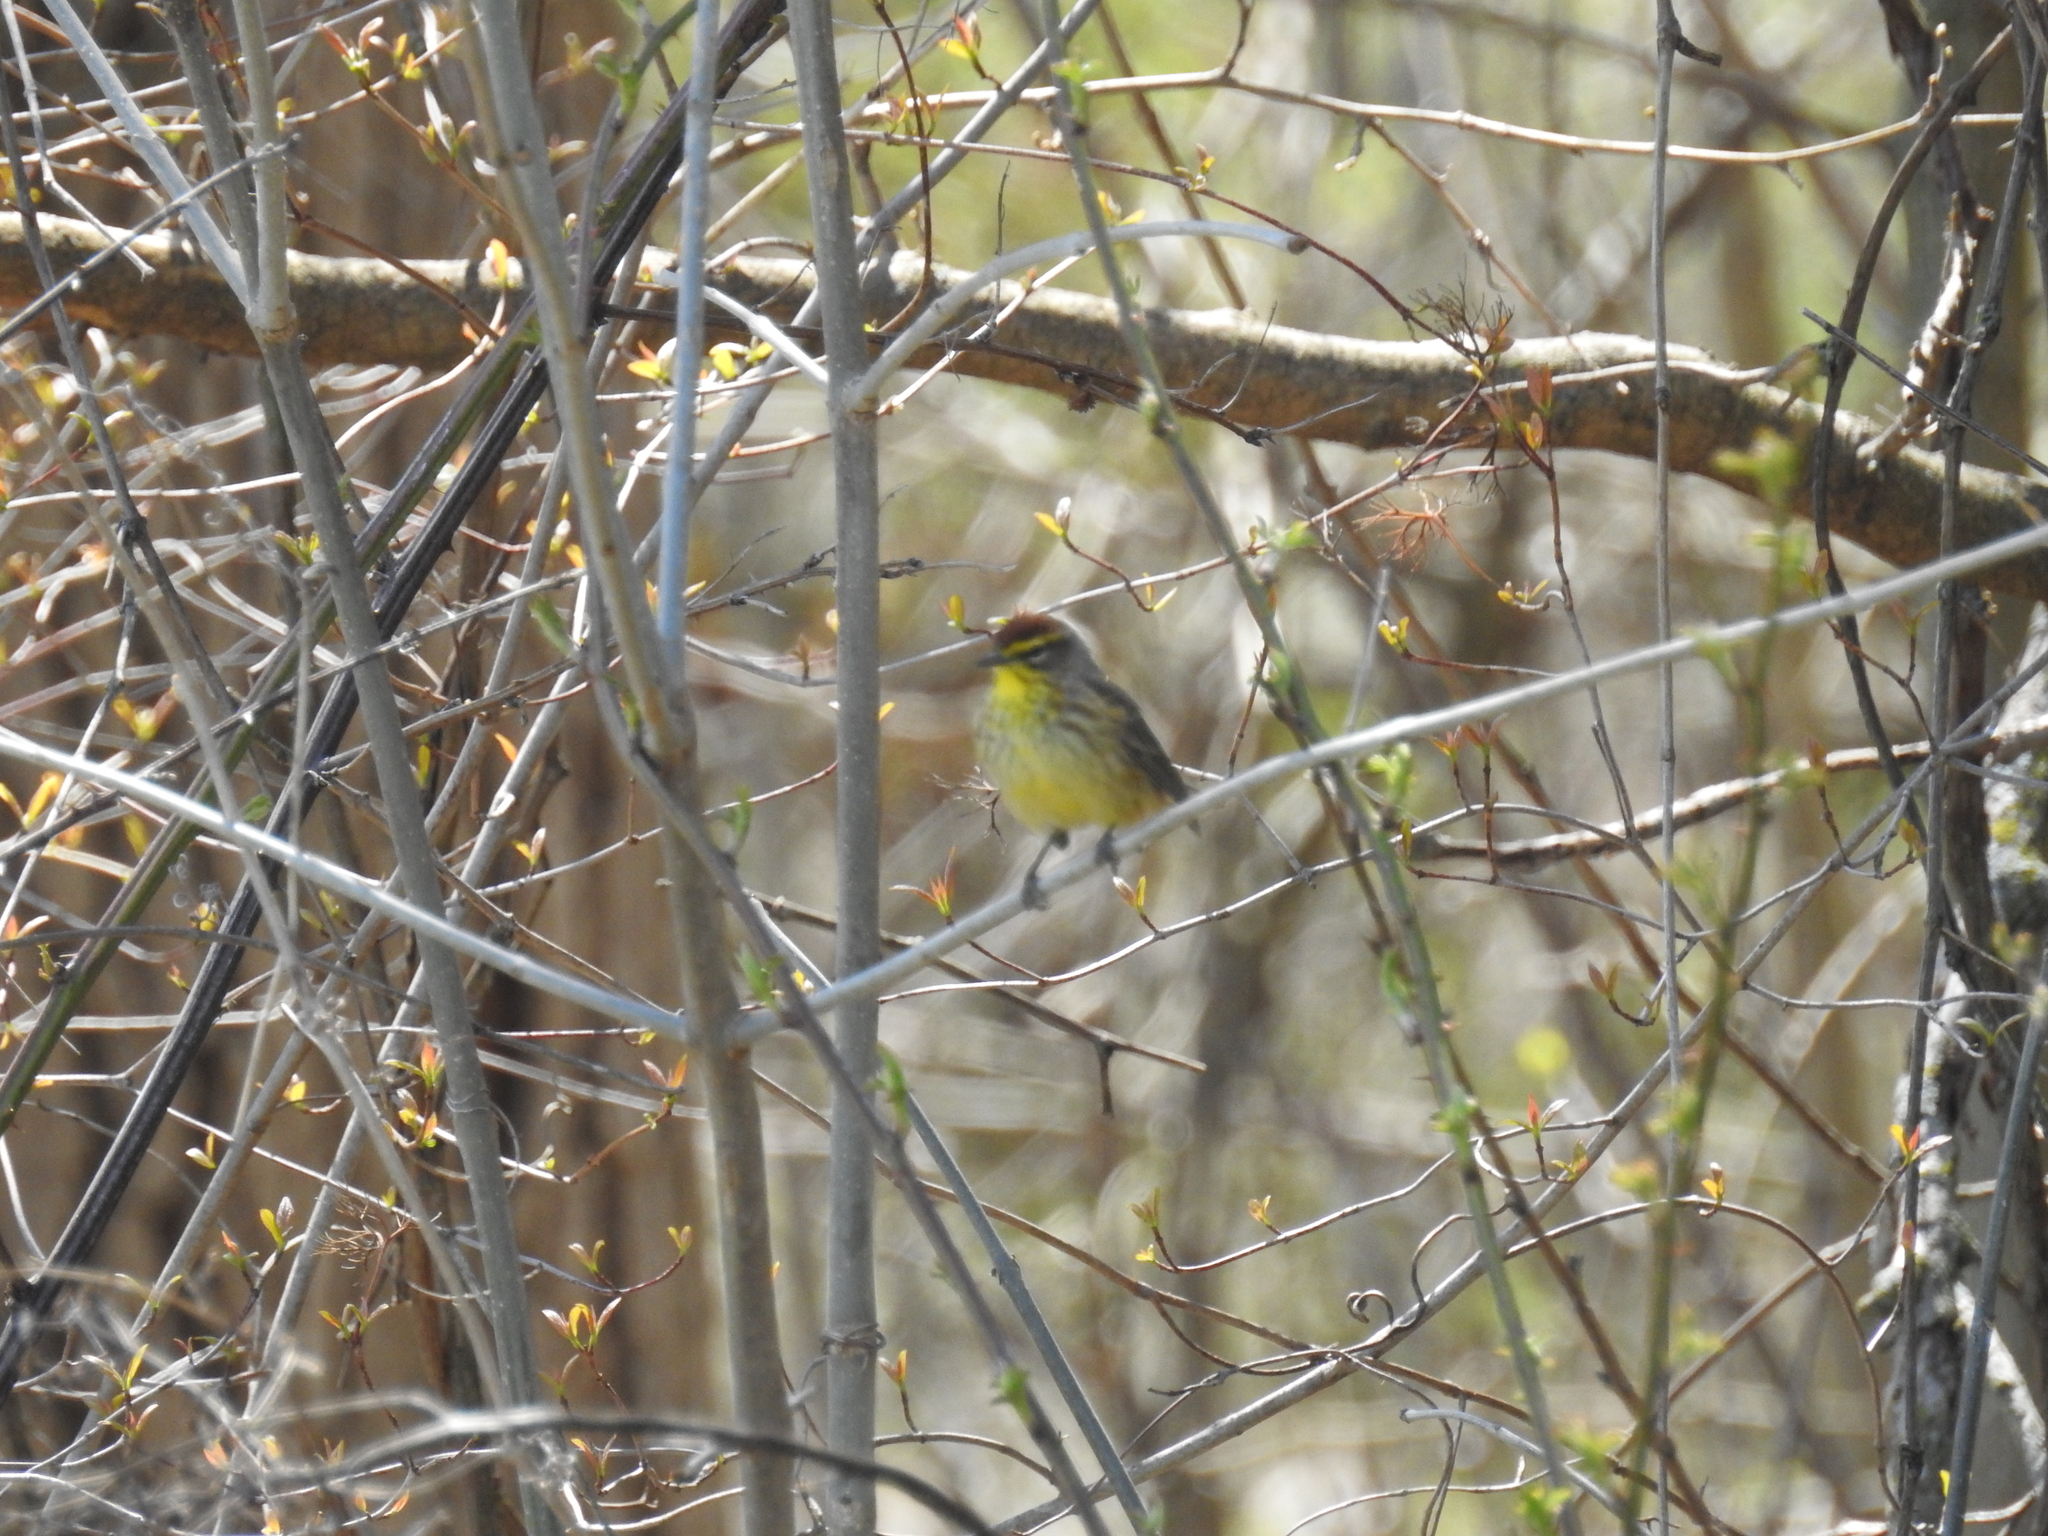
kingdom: Animalia
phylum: Chordata
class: Aves
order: Passeriformes
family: Parulidae
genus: Setophaga
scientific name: Setophaga palmarum
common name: Palm warbler
